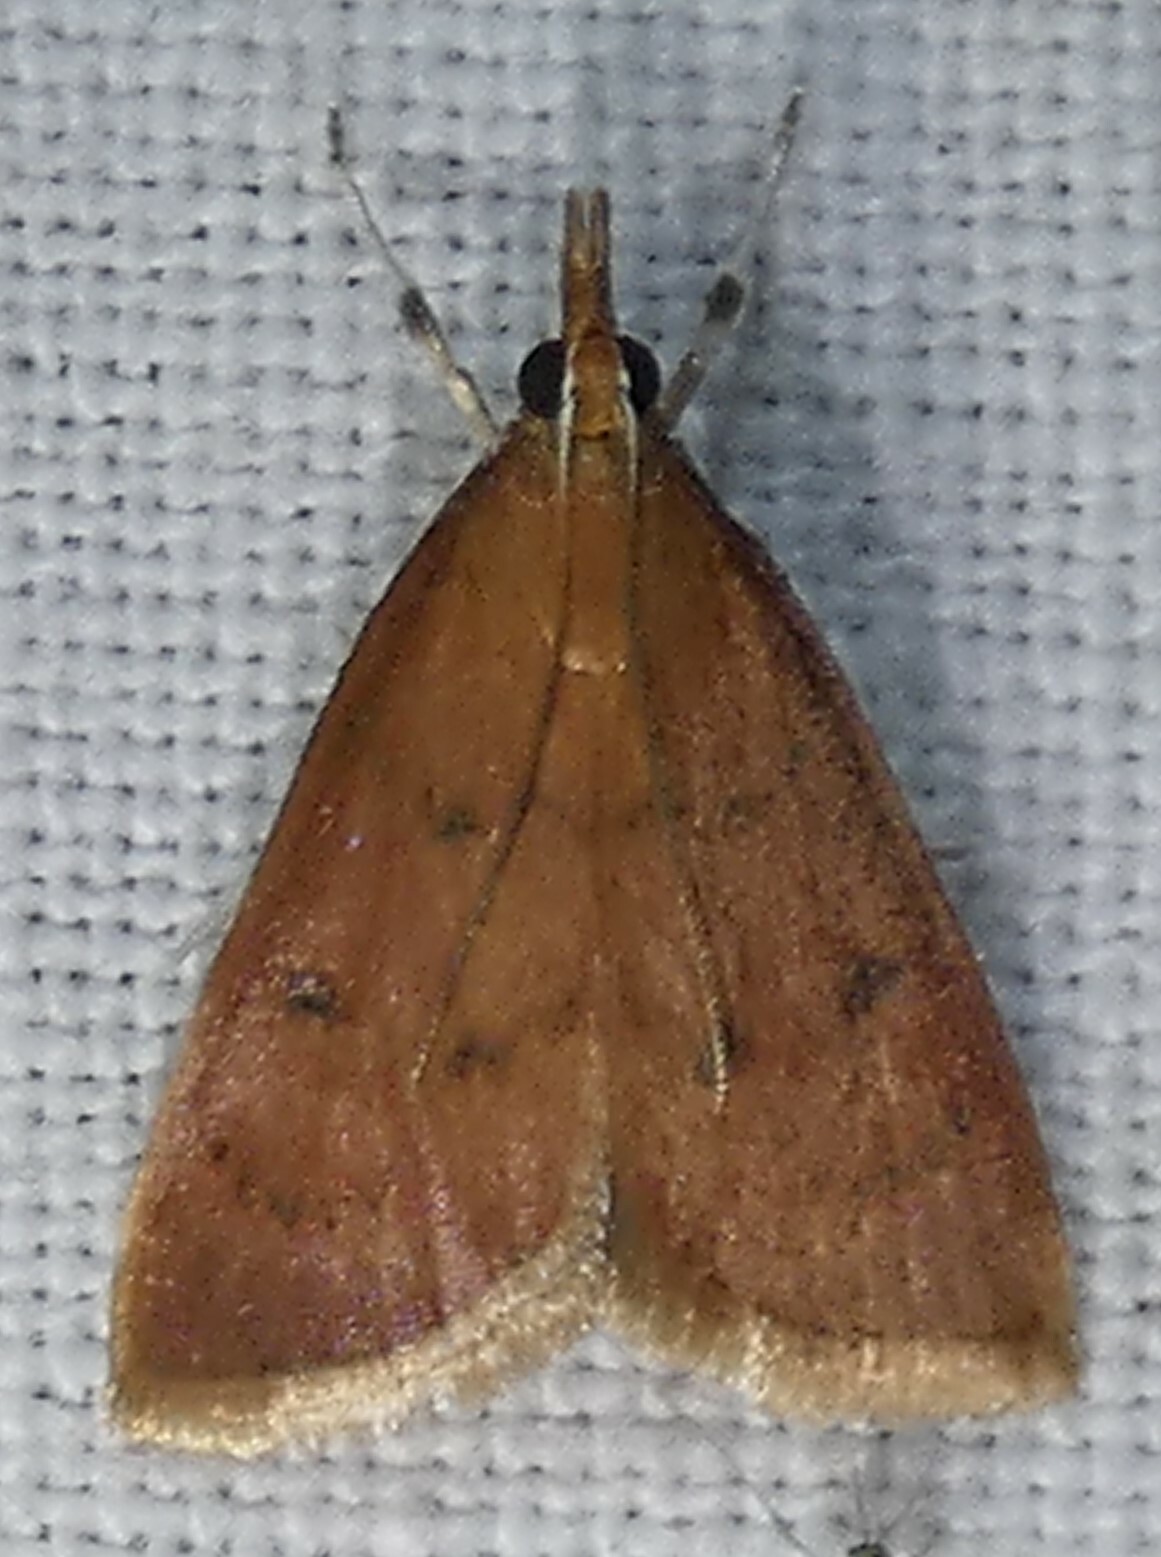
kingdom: Animalia
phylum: Arthropoda
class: Insecta
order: Lepidoptera
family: Crambidae
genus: Oenobotys
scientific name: Oenobotys vinotinctalis
